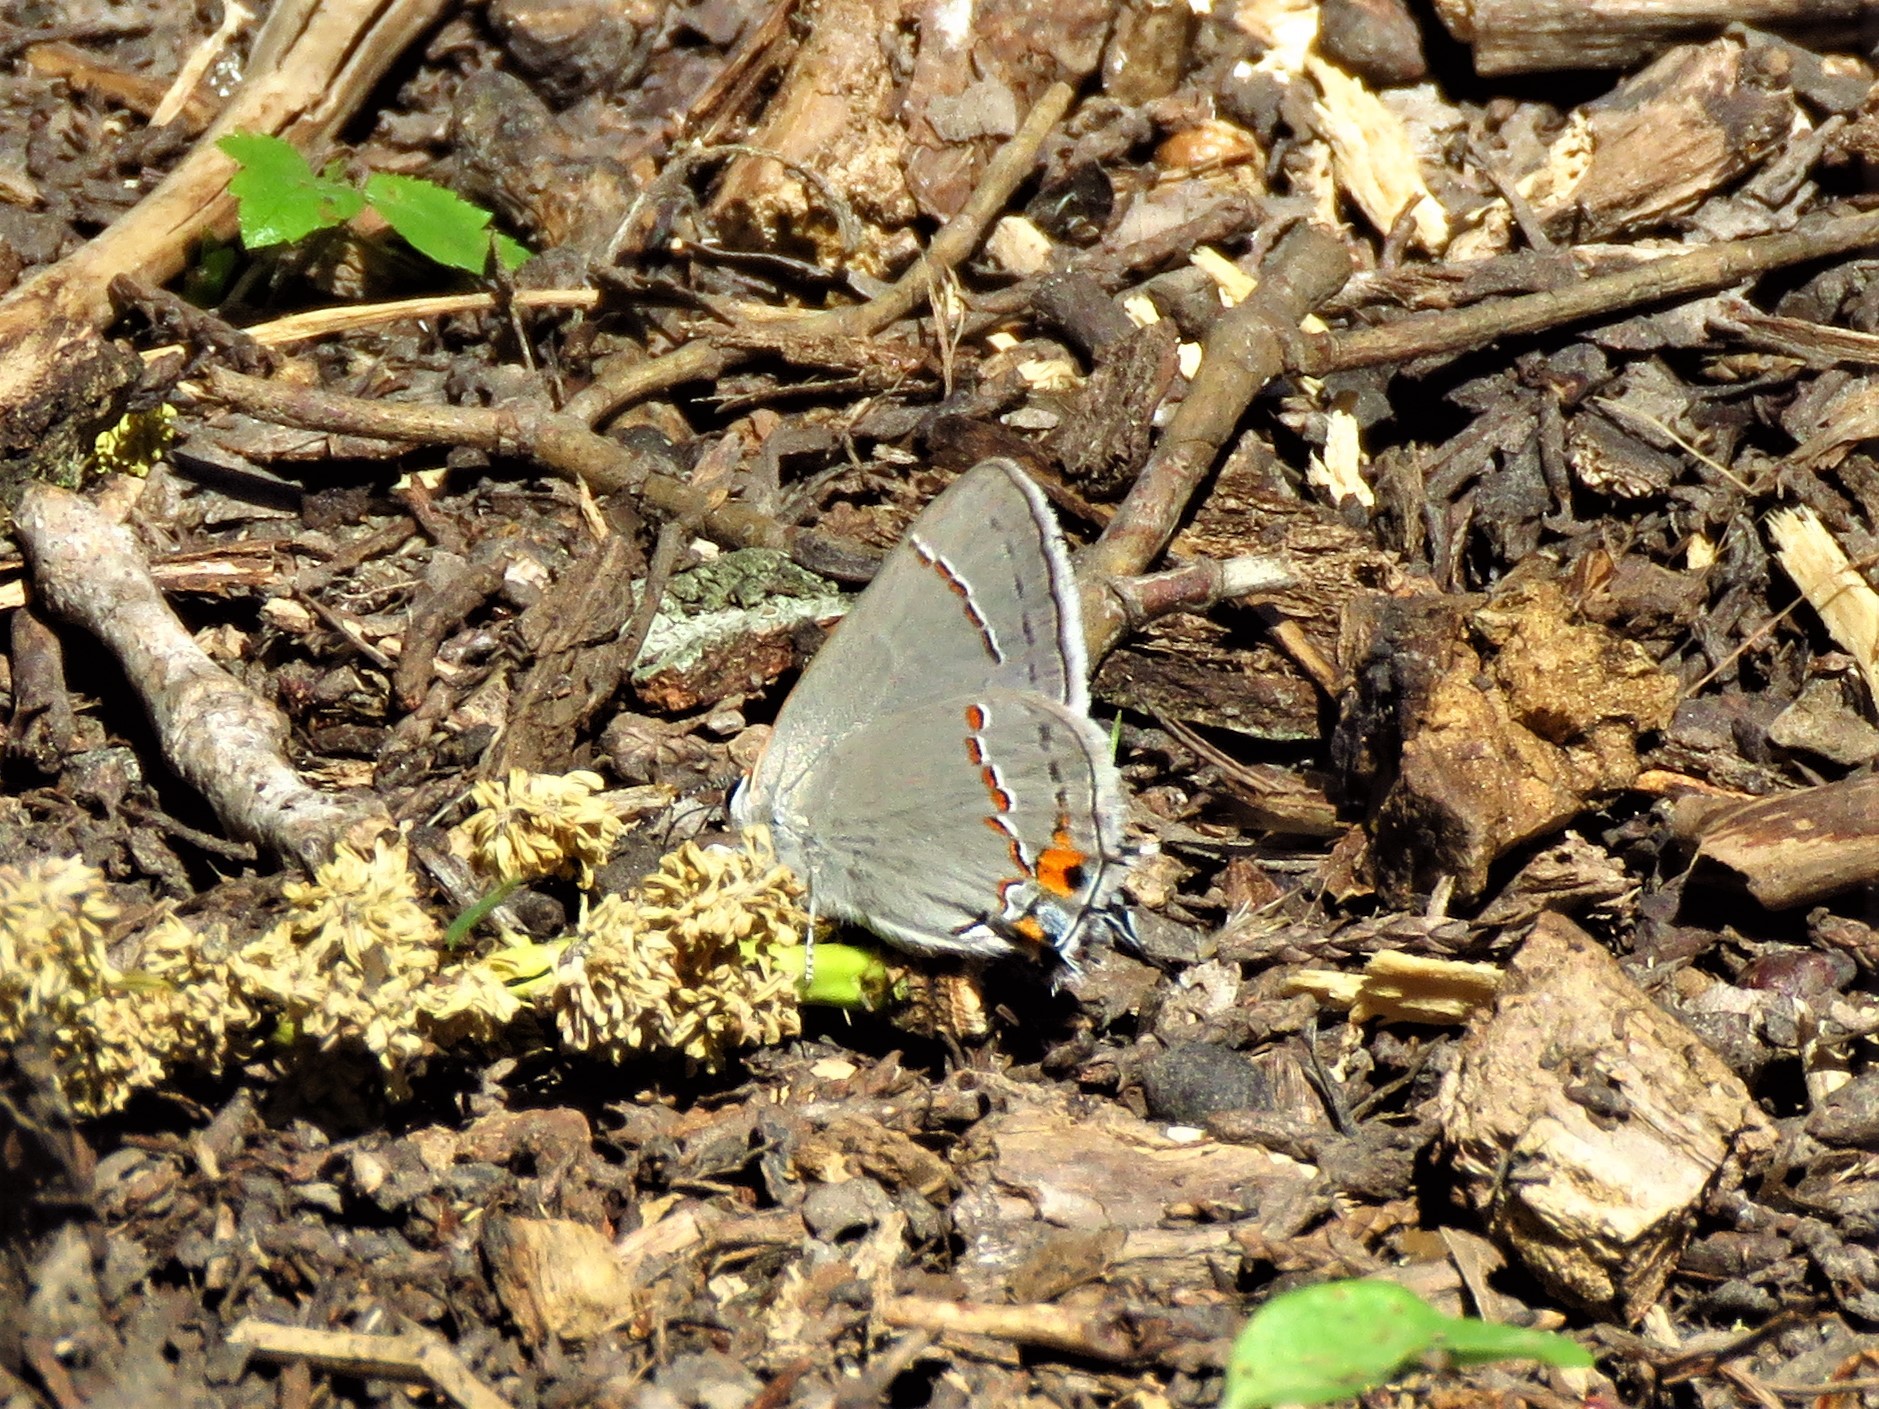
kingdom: Animalia
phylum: Arthropoda
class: Insecta
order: Lepidoptera
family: Lycaenidae
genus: Strymon
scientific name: Strymon melinus
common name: Gray hairstreak
